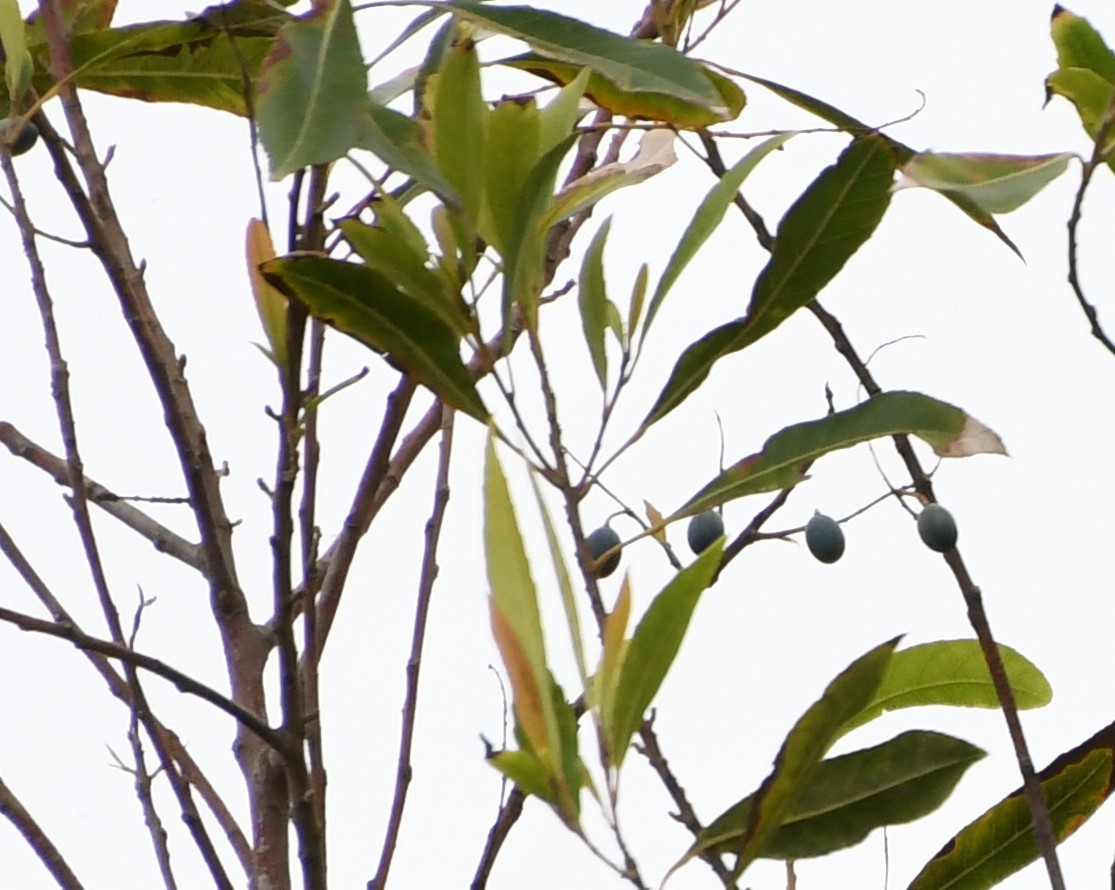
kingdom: Plantae
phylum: Tracheophyta
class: Magnoliopsida
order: Oxalidales
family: Elaeocarpaceae
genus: Elaeocarpus
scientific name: Elaeocarpus reticulatus
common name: Ash quandong
